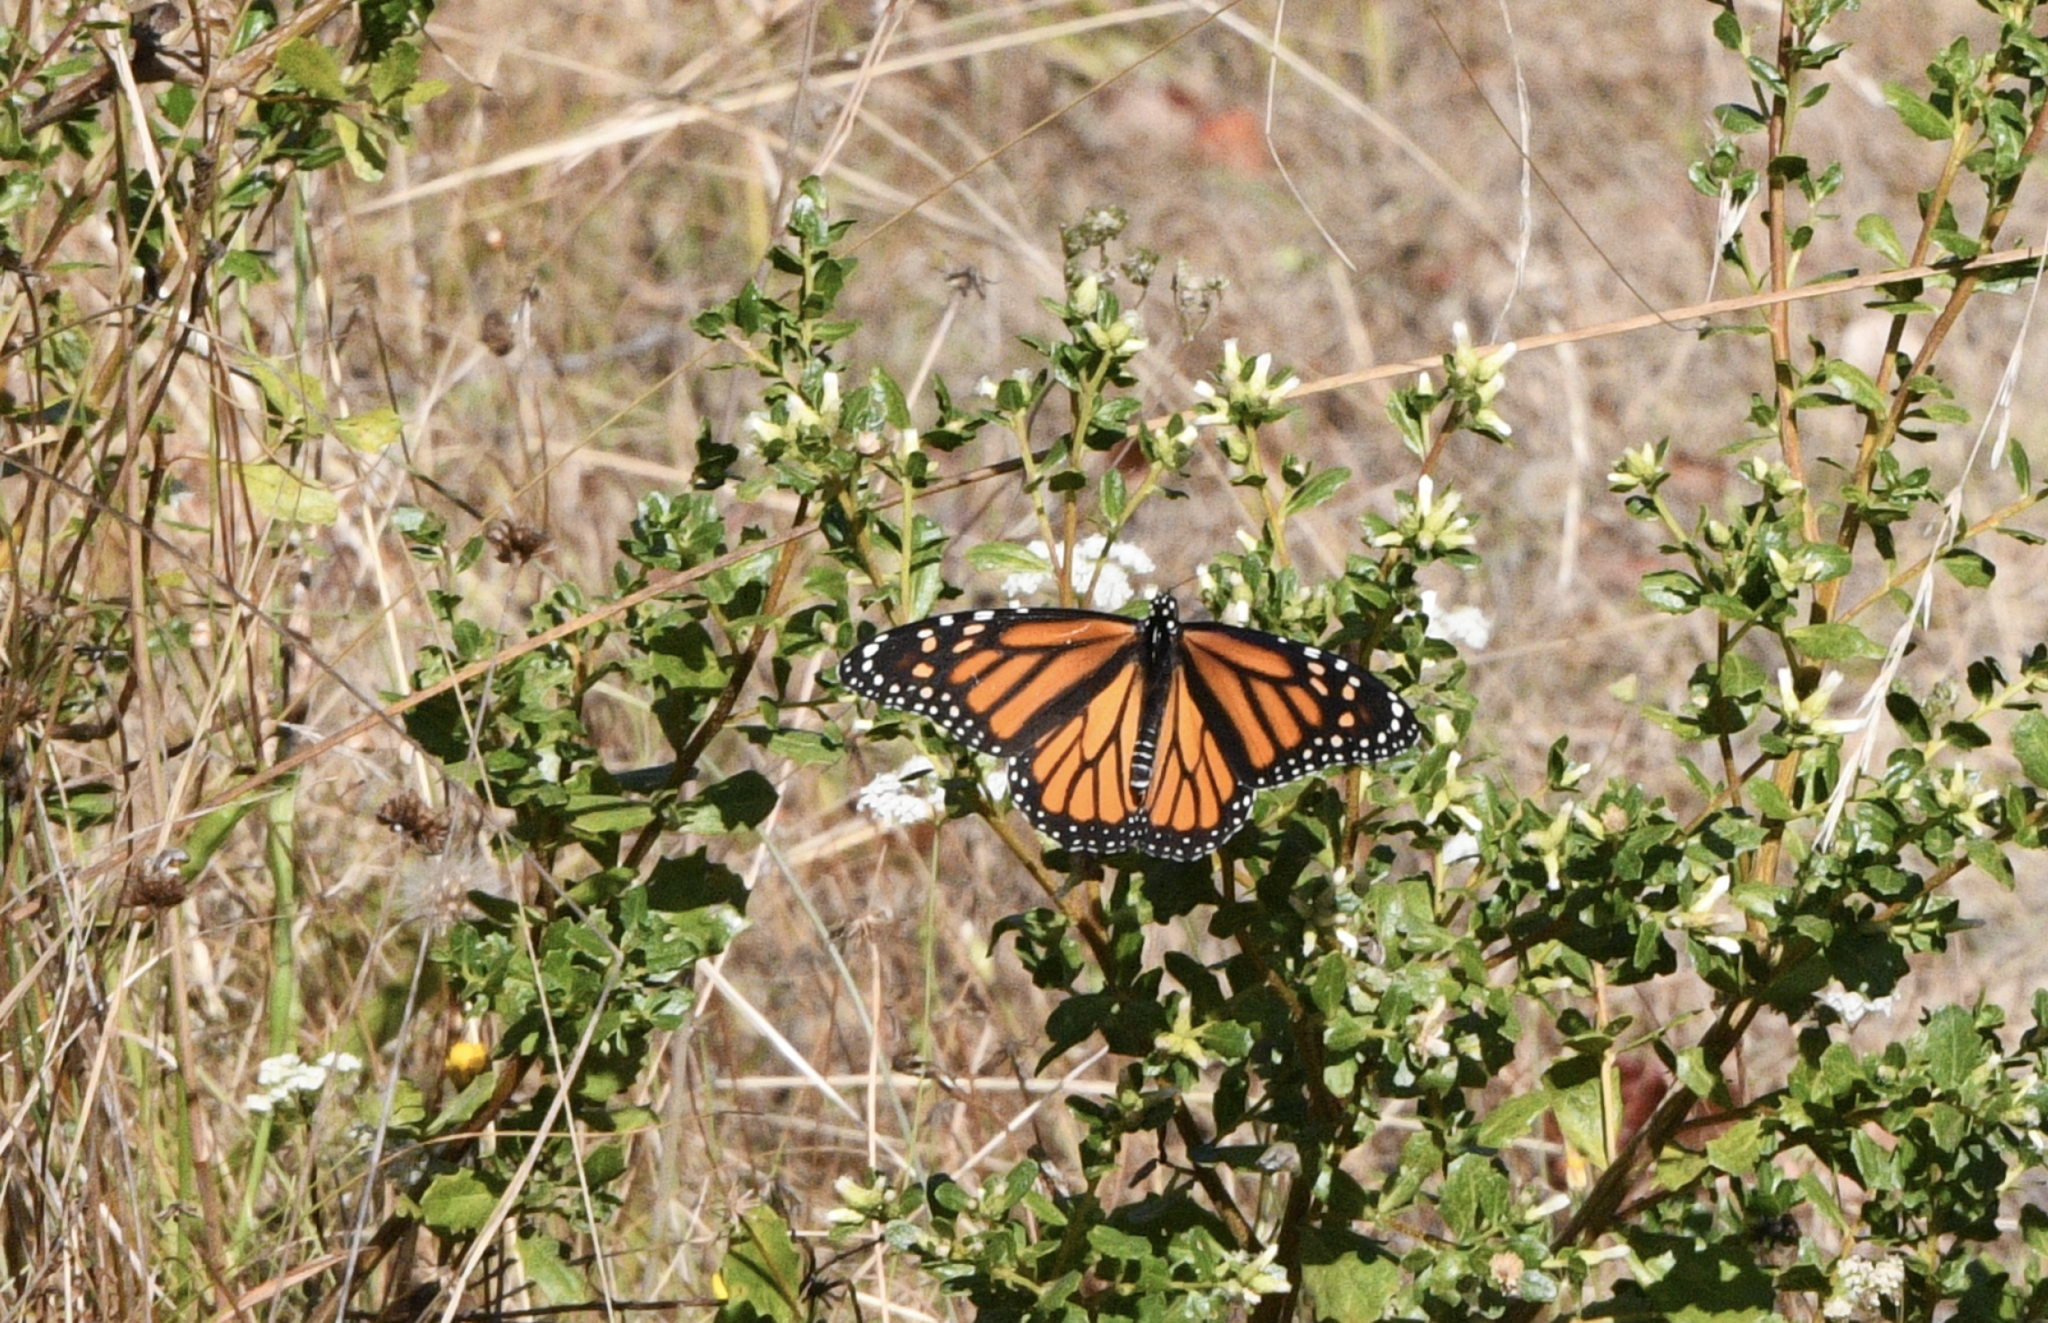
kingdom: Animalia
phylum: Arthropoda
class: Insecta
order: Lepidoptera
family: Nymphalidae
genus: Danaus
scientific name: Danaus plexippus
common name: Monarch
